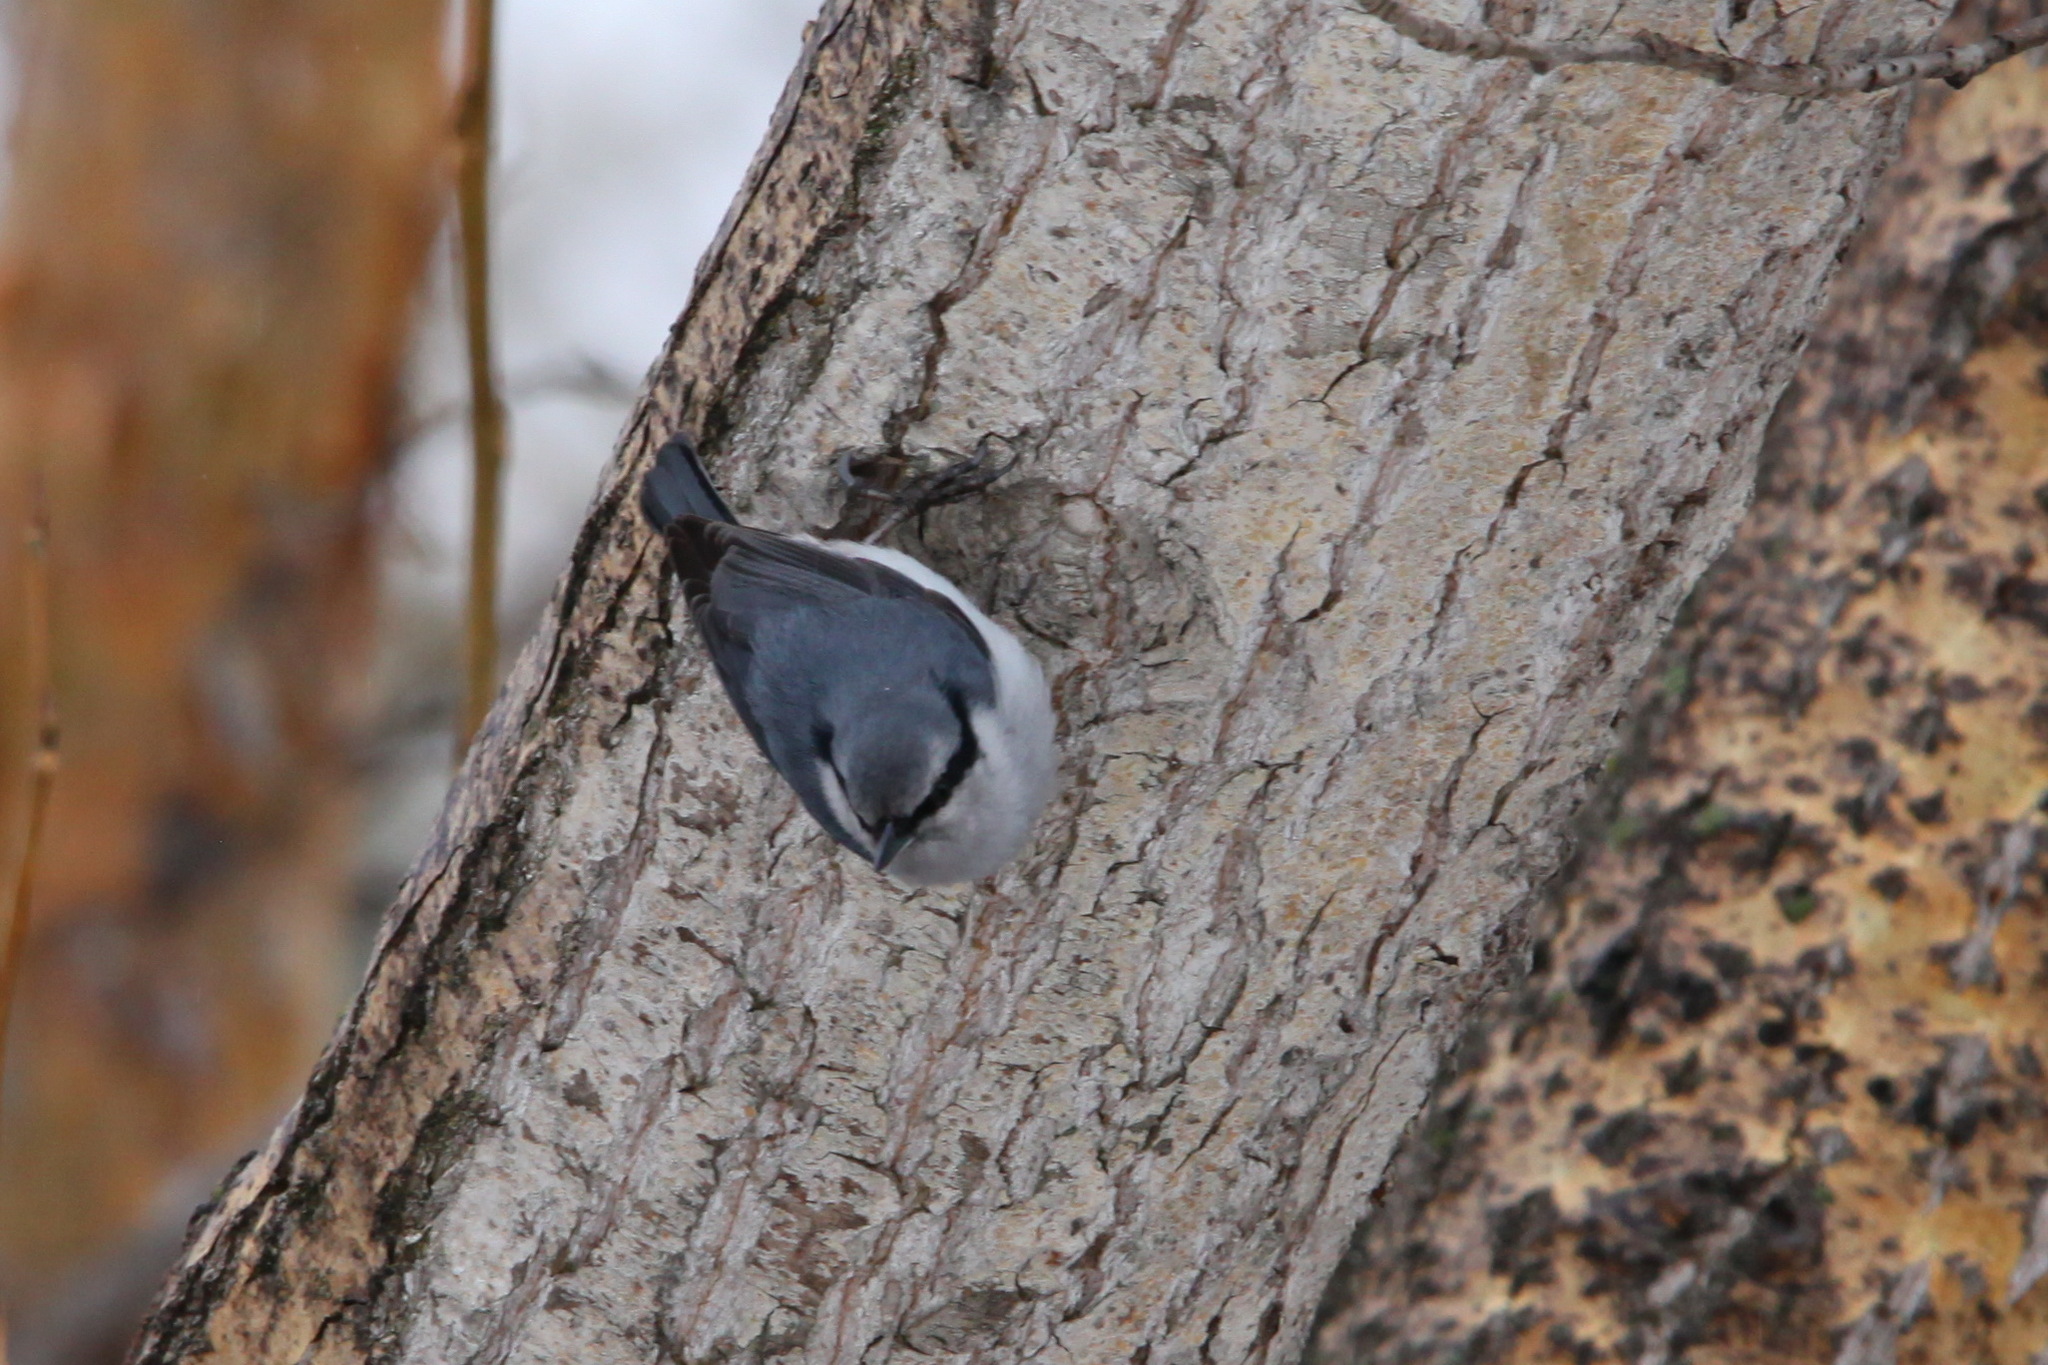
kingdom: Animalia
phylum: Chordata
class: Aves
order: Passeriformes
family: Sittidae
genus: Sitta
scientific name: Sitta europaea
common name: Eurasian nuthatch
